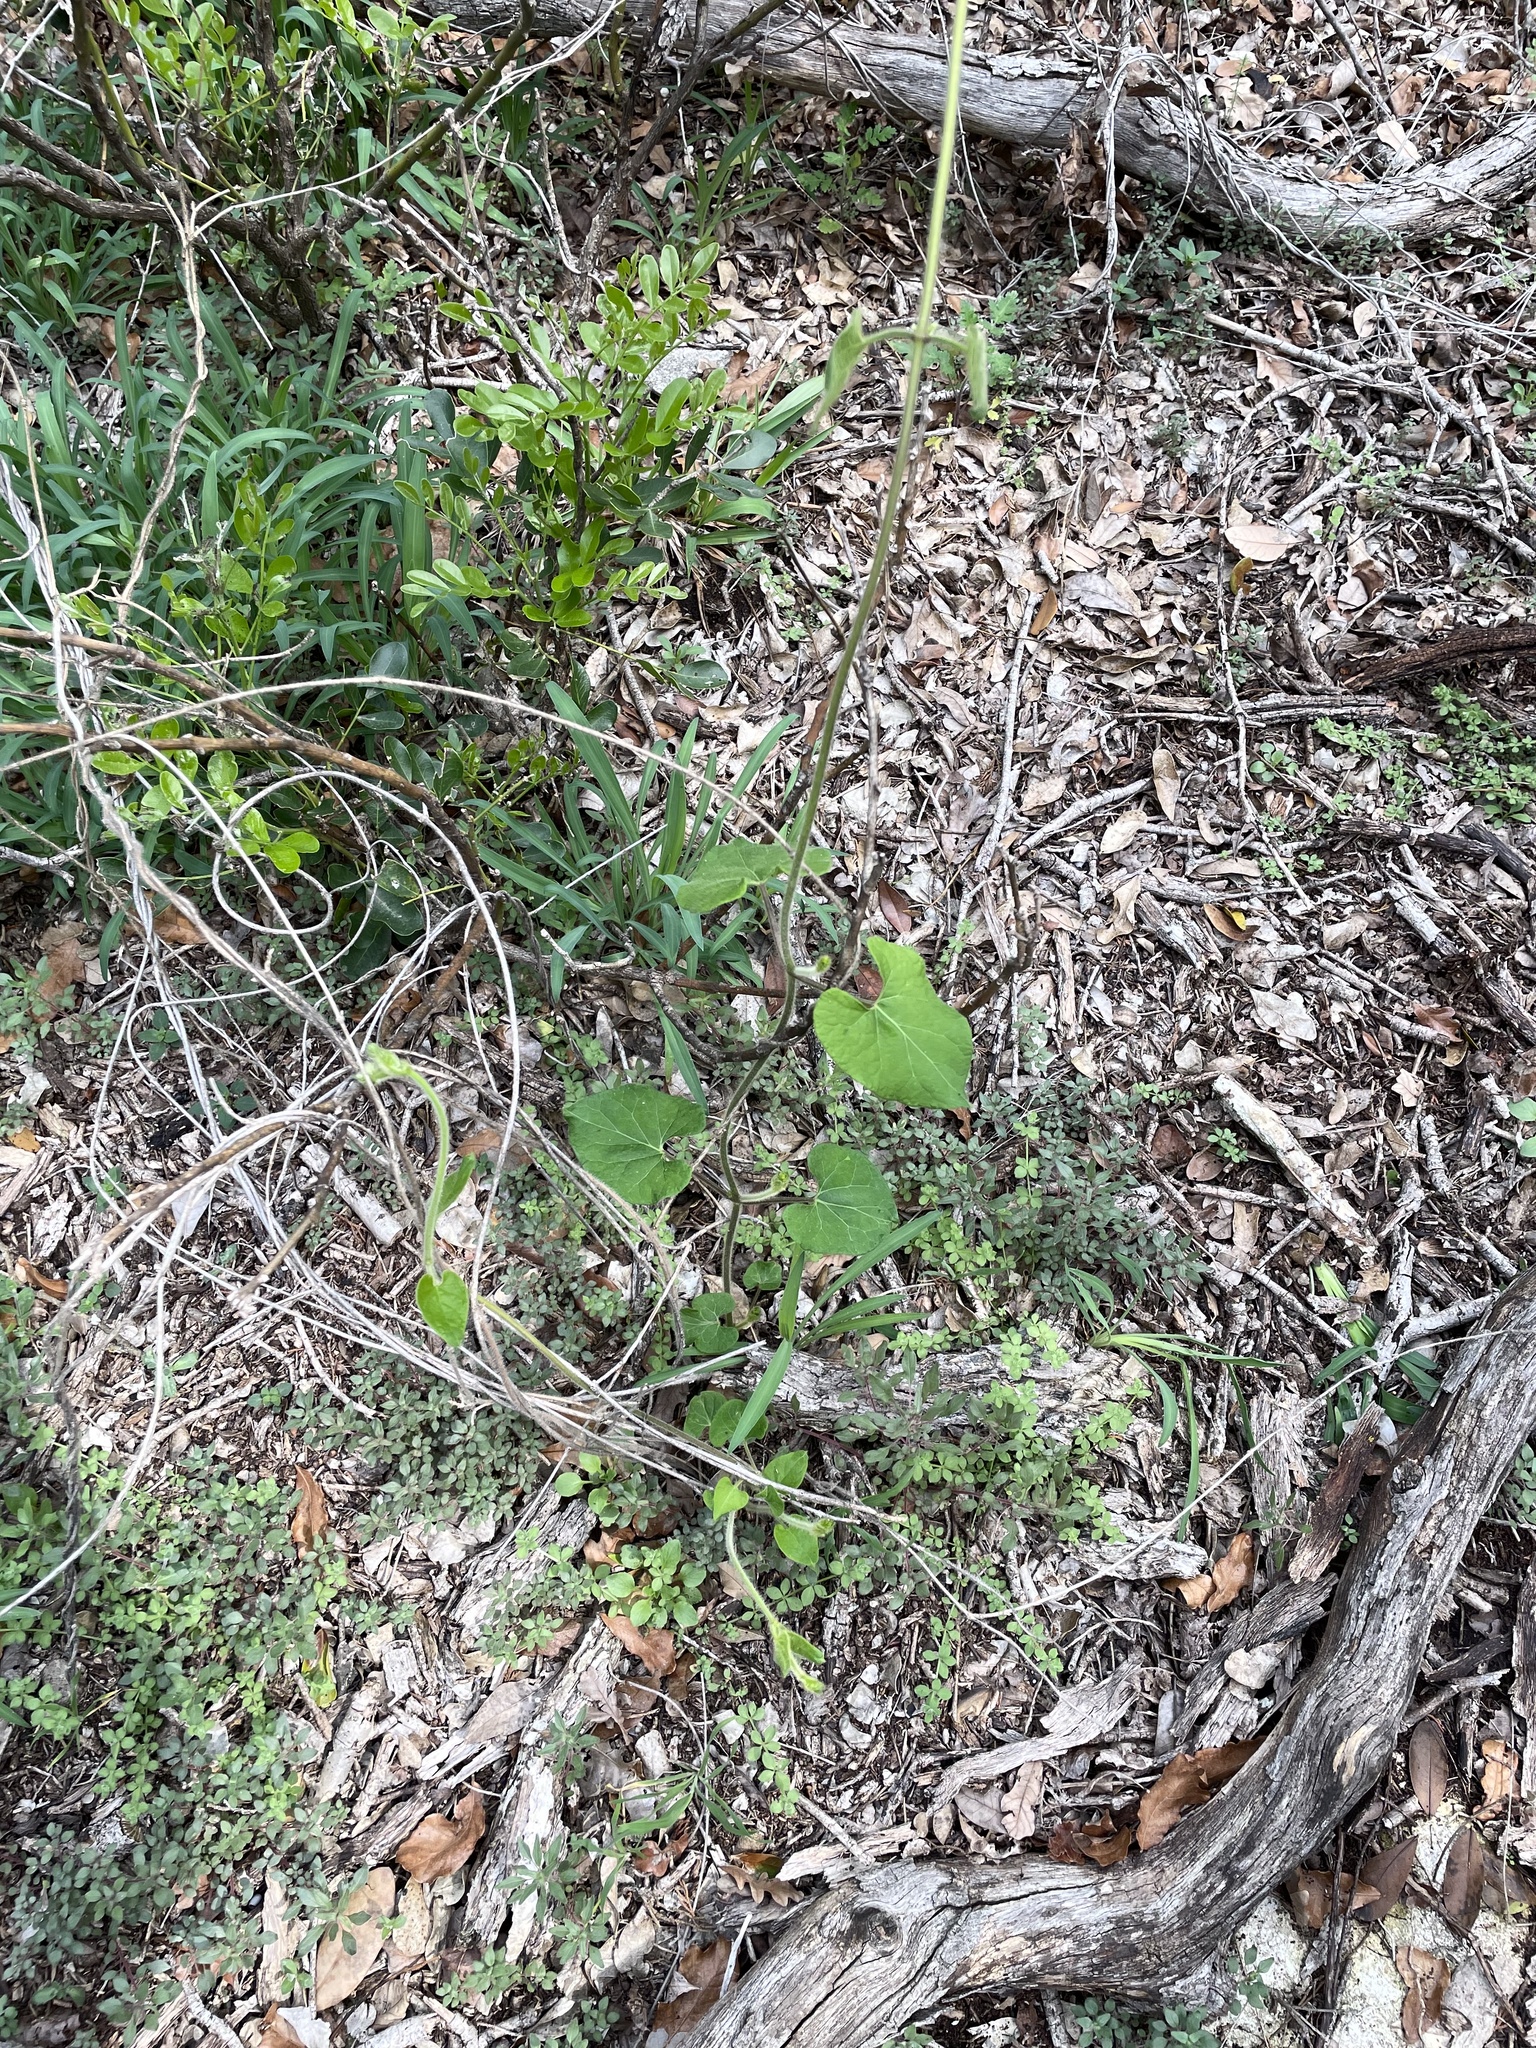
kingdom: Plantae
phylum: Tracheophyta
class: Magnoliopsida
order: Gentianales
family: Apocynaceae
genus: Dictyanthus
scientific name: Dictyanthus reticulatus
